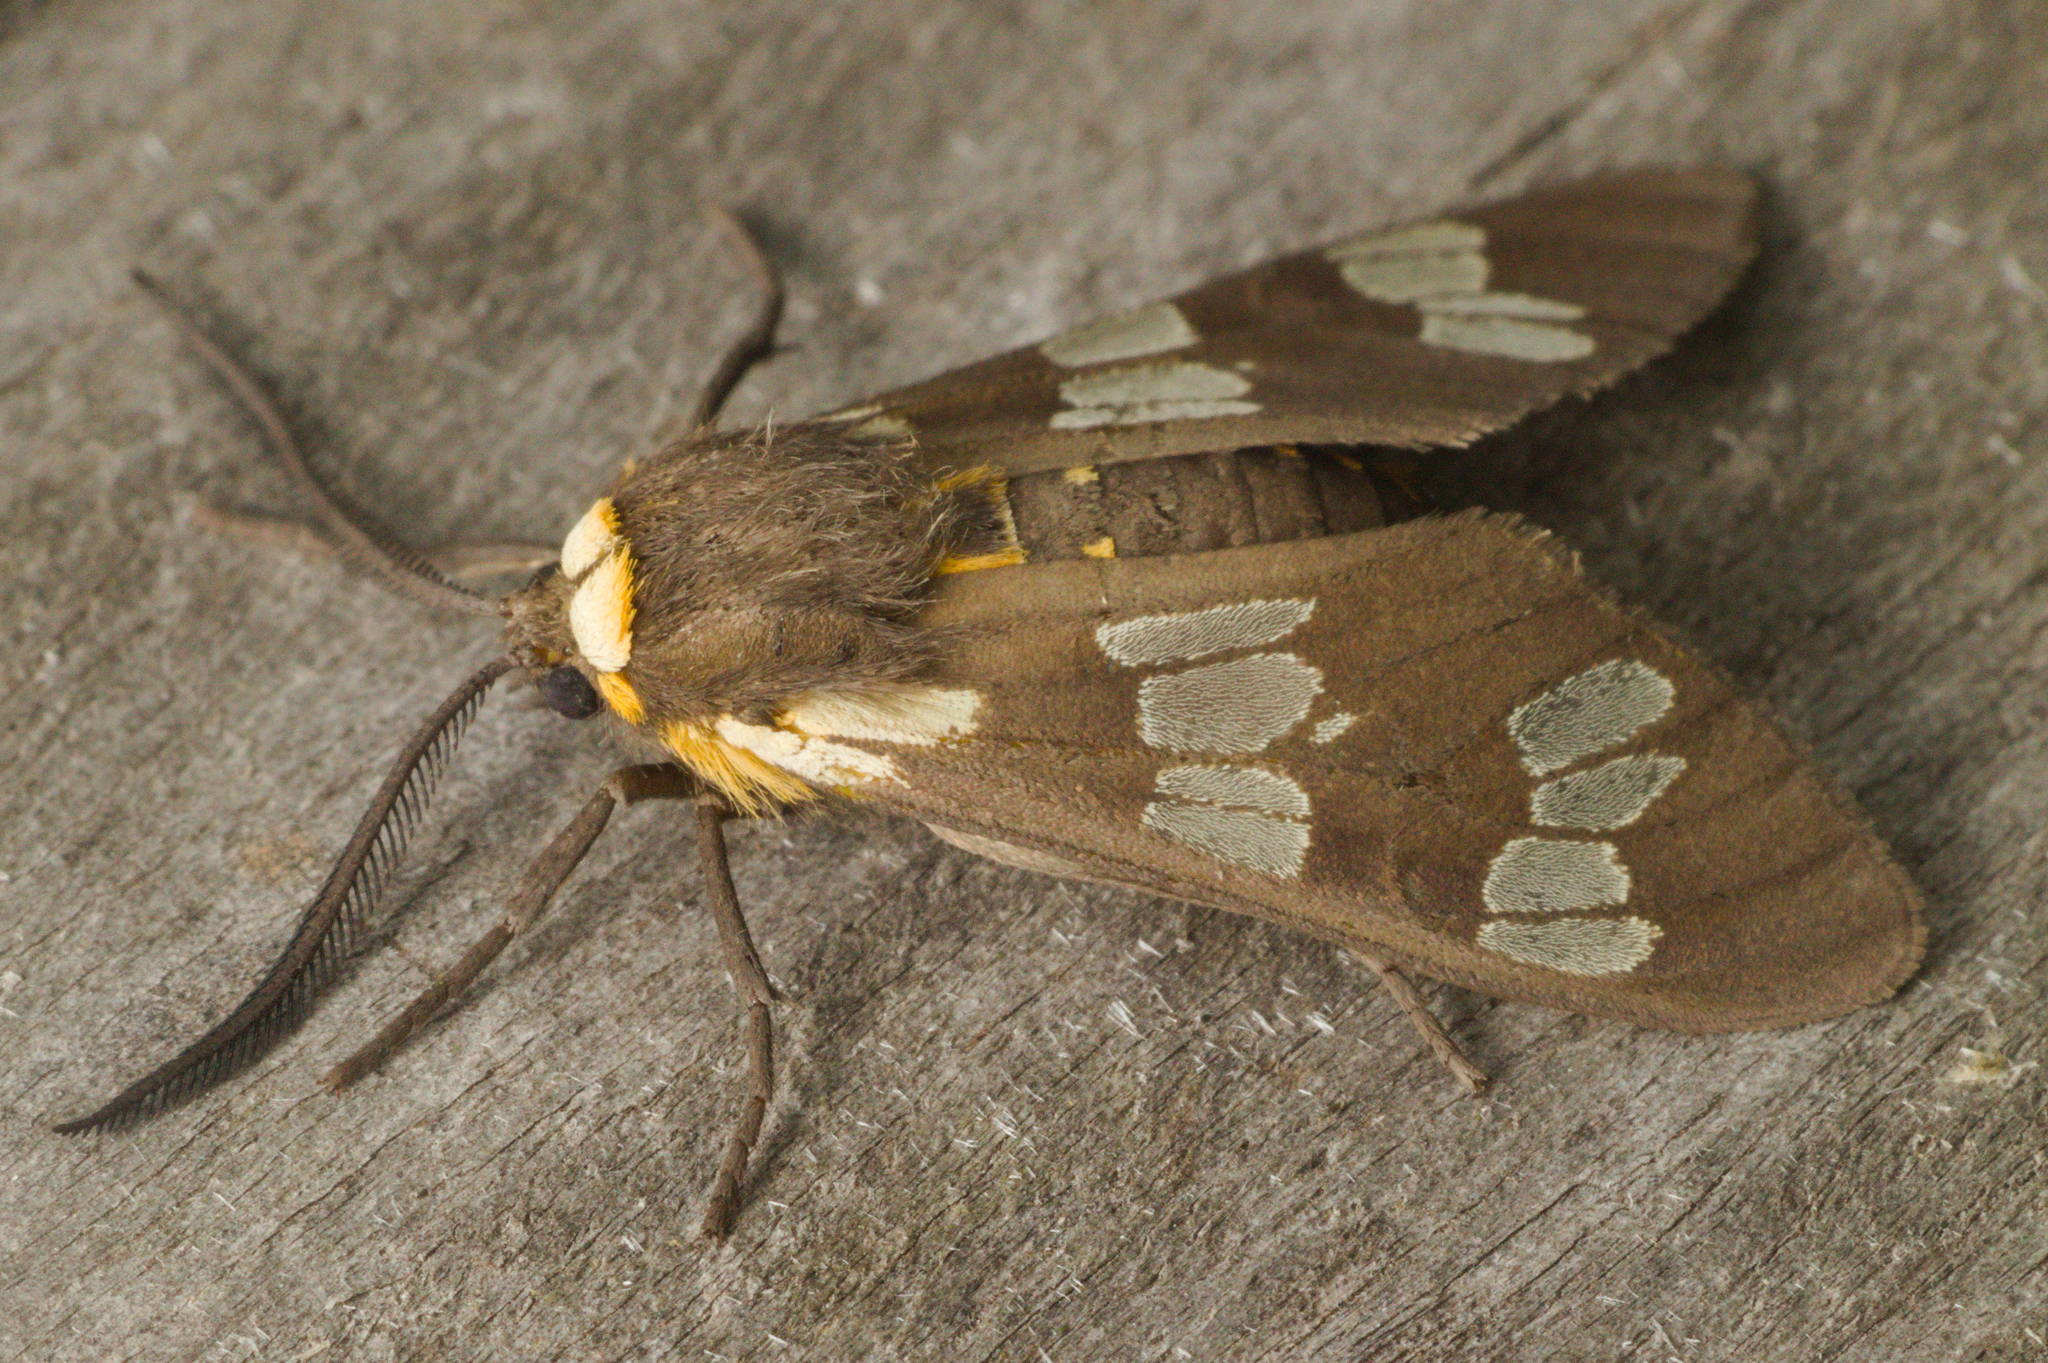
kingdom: Animalia
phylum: Arthropoda
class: Insecta
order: Lepidoptera
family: Erebidae
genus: Eurata
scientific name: Eurata
